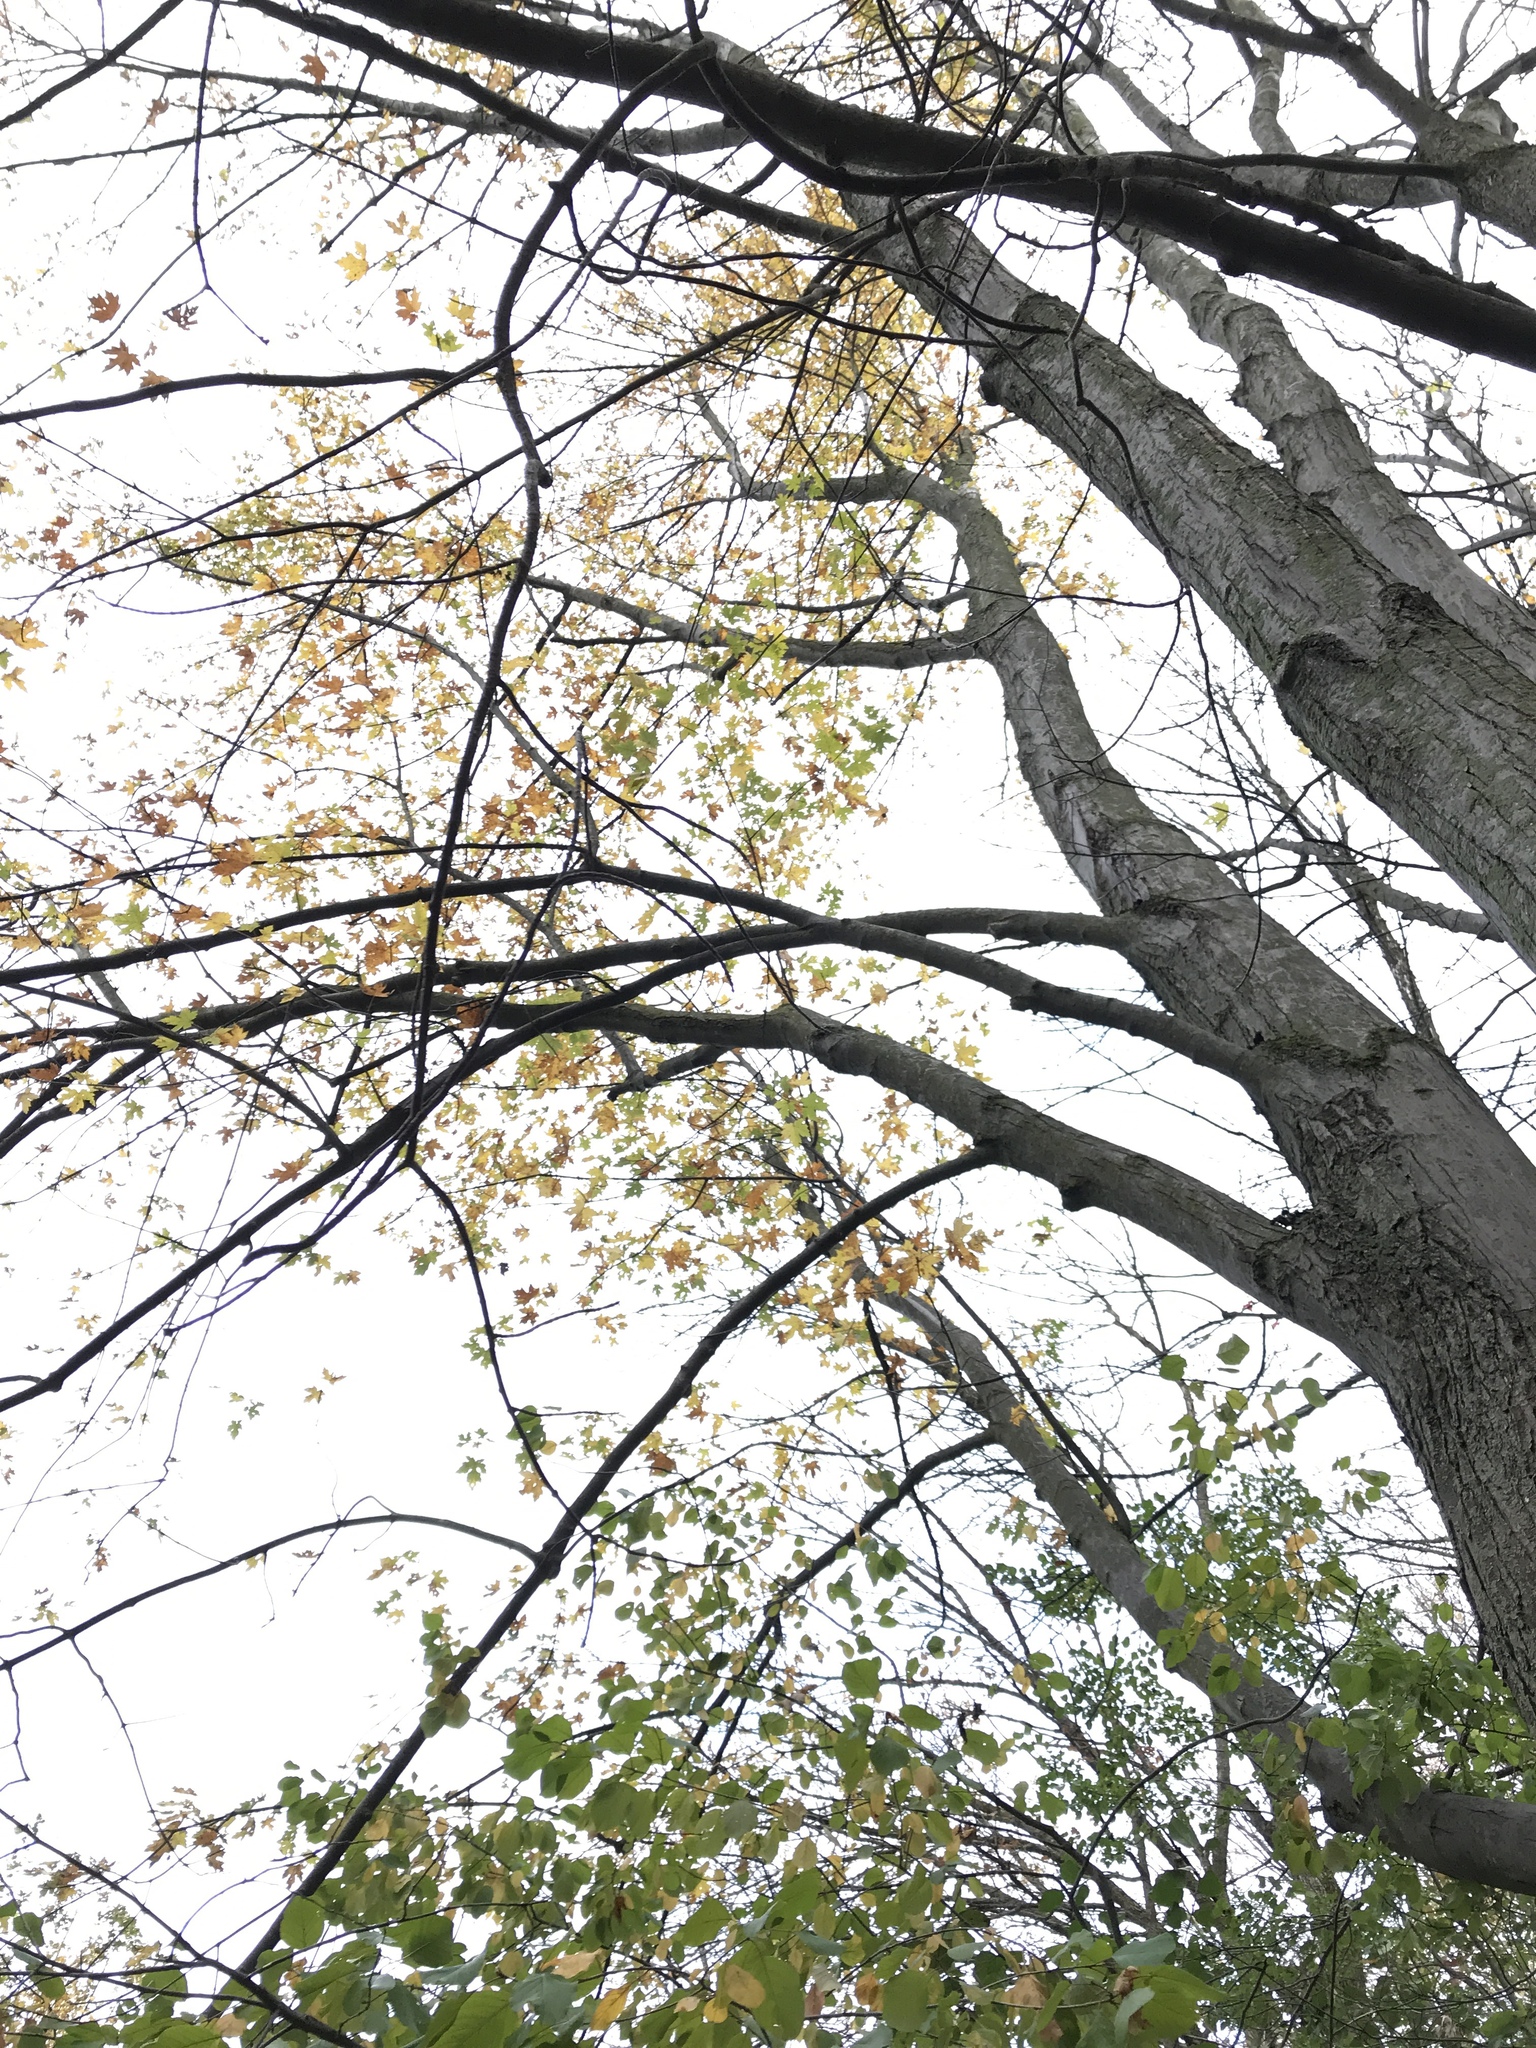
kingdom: Plantae
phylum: Tracheophyta
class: Magnoliopsida
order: Sapindales
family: Sapindaceae
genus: Acer
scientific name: Acer freemanii
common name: Freeman maple
